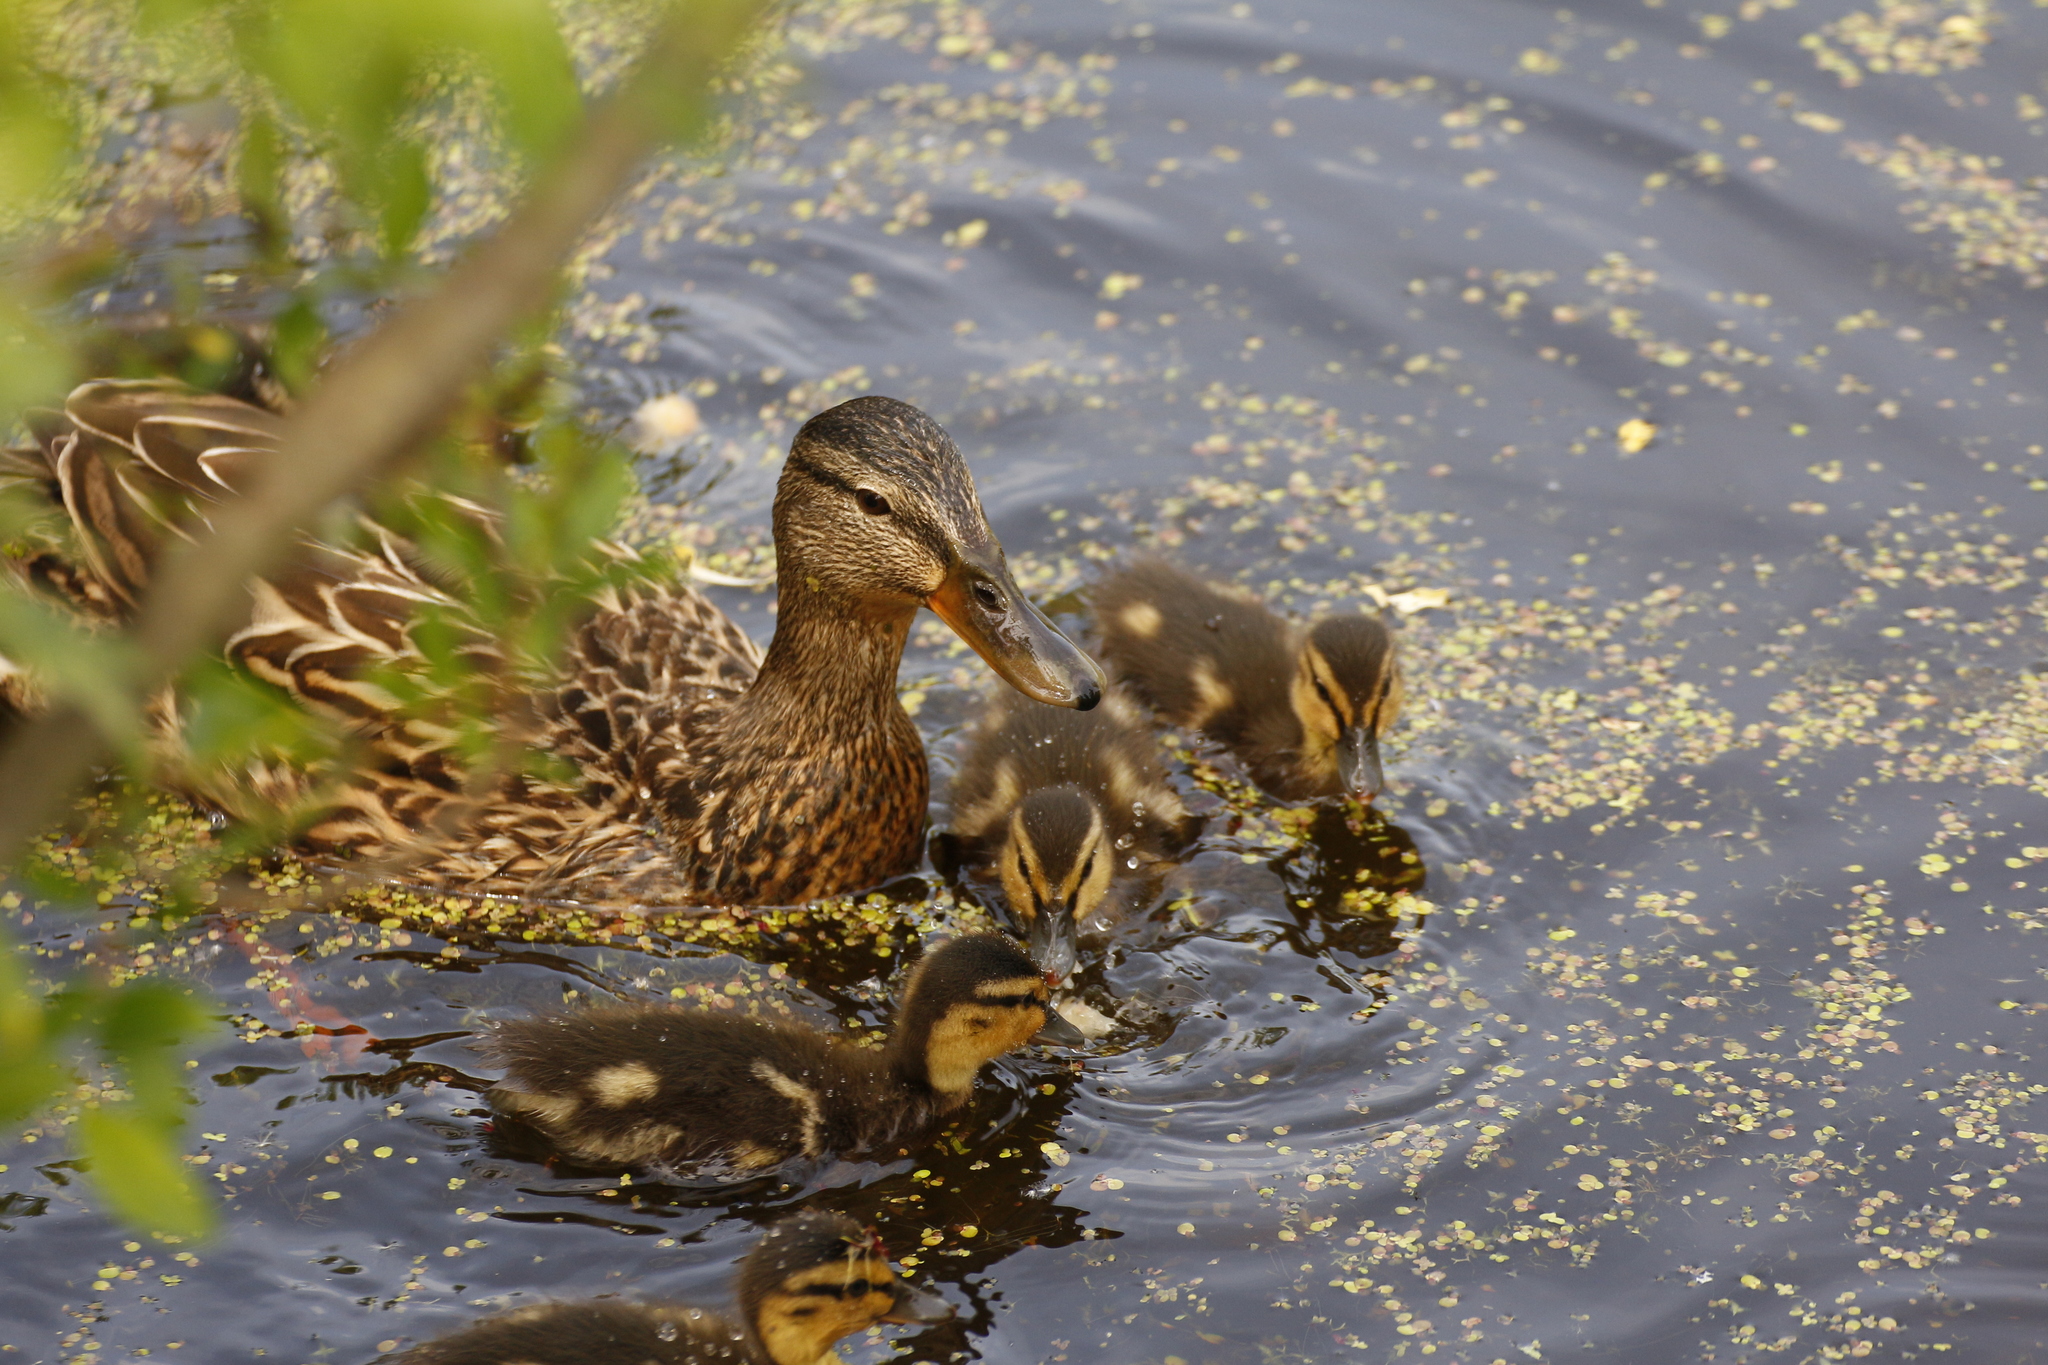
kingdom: Animalia
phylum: Chordata
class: Aves
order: Anseriformes
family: Anatidae
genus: Anas
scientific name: Anas platyrhynchos
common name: Mallard
